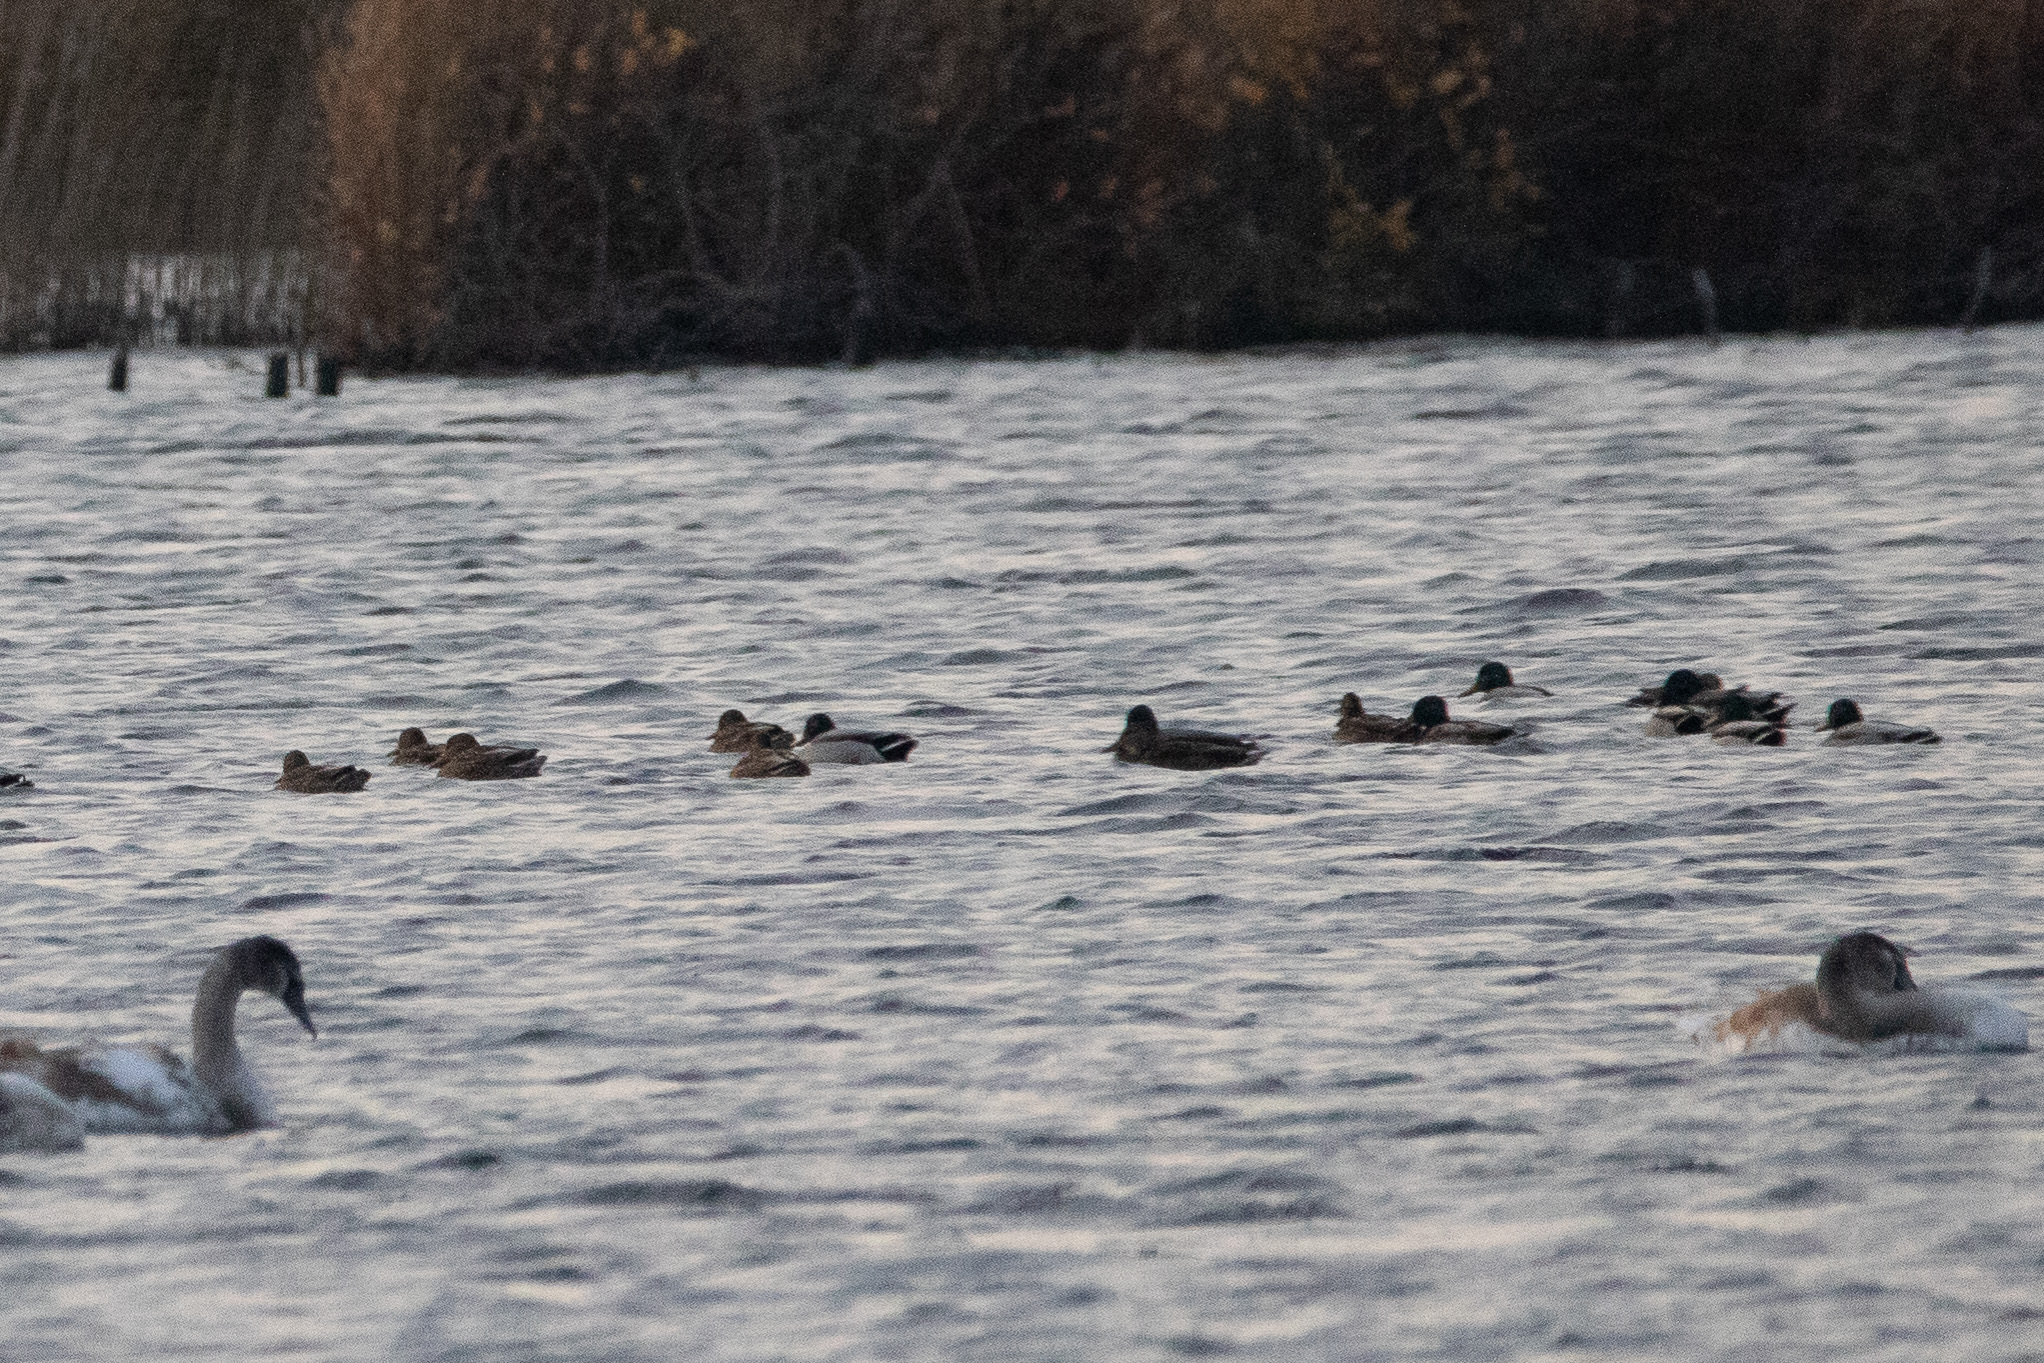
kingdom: Animalia
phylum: Chordata
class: Aves
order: Anseriformes
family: Anatidae
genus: Anas
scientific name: Anas platyrhynchos
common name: Mallard
